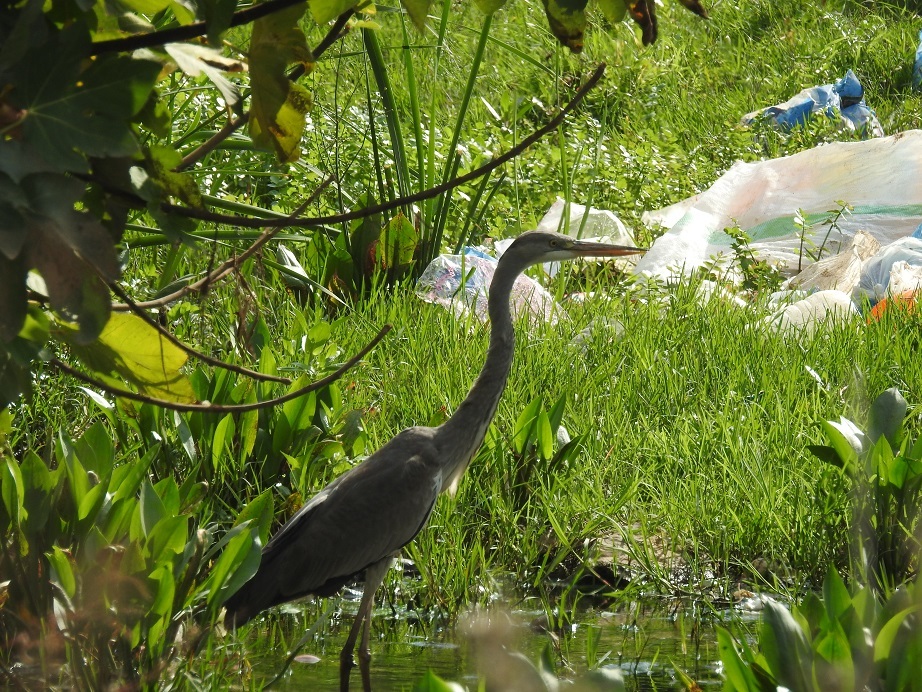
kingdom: Animalia
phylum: Chordata
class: Aves
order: Pelecaniformes
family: Ardeidae
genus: Ardea
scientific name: Ardea cinerea
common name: Grey heron
